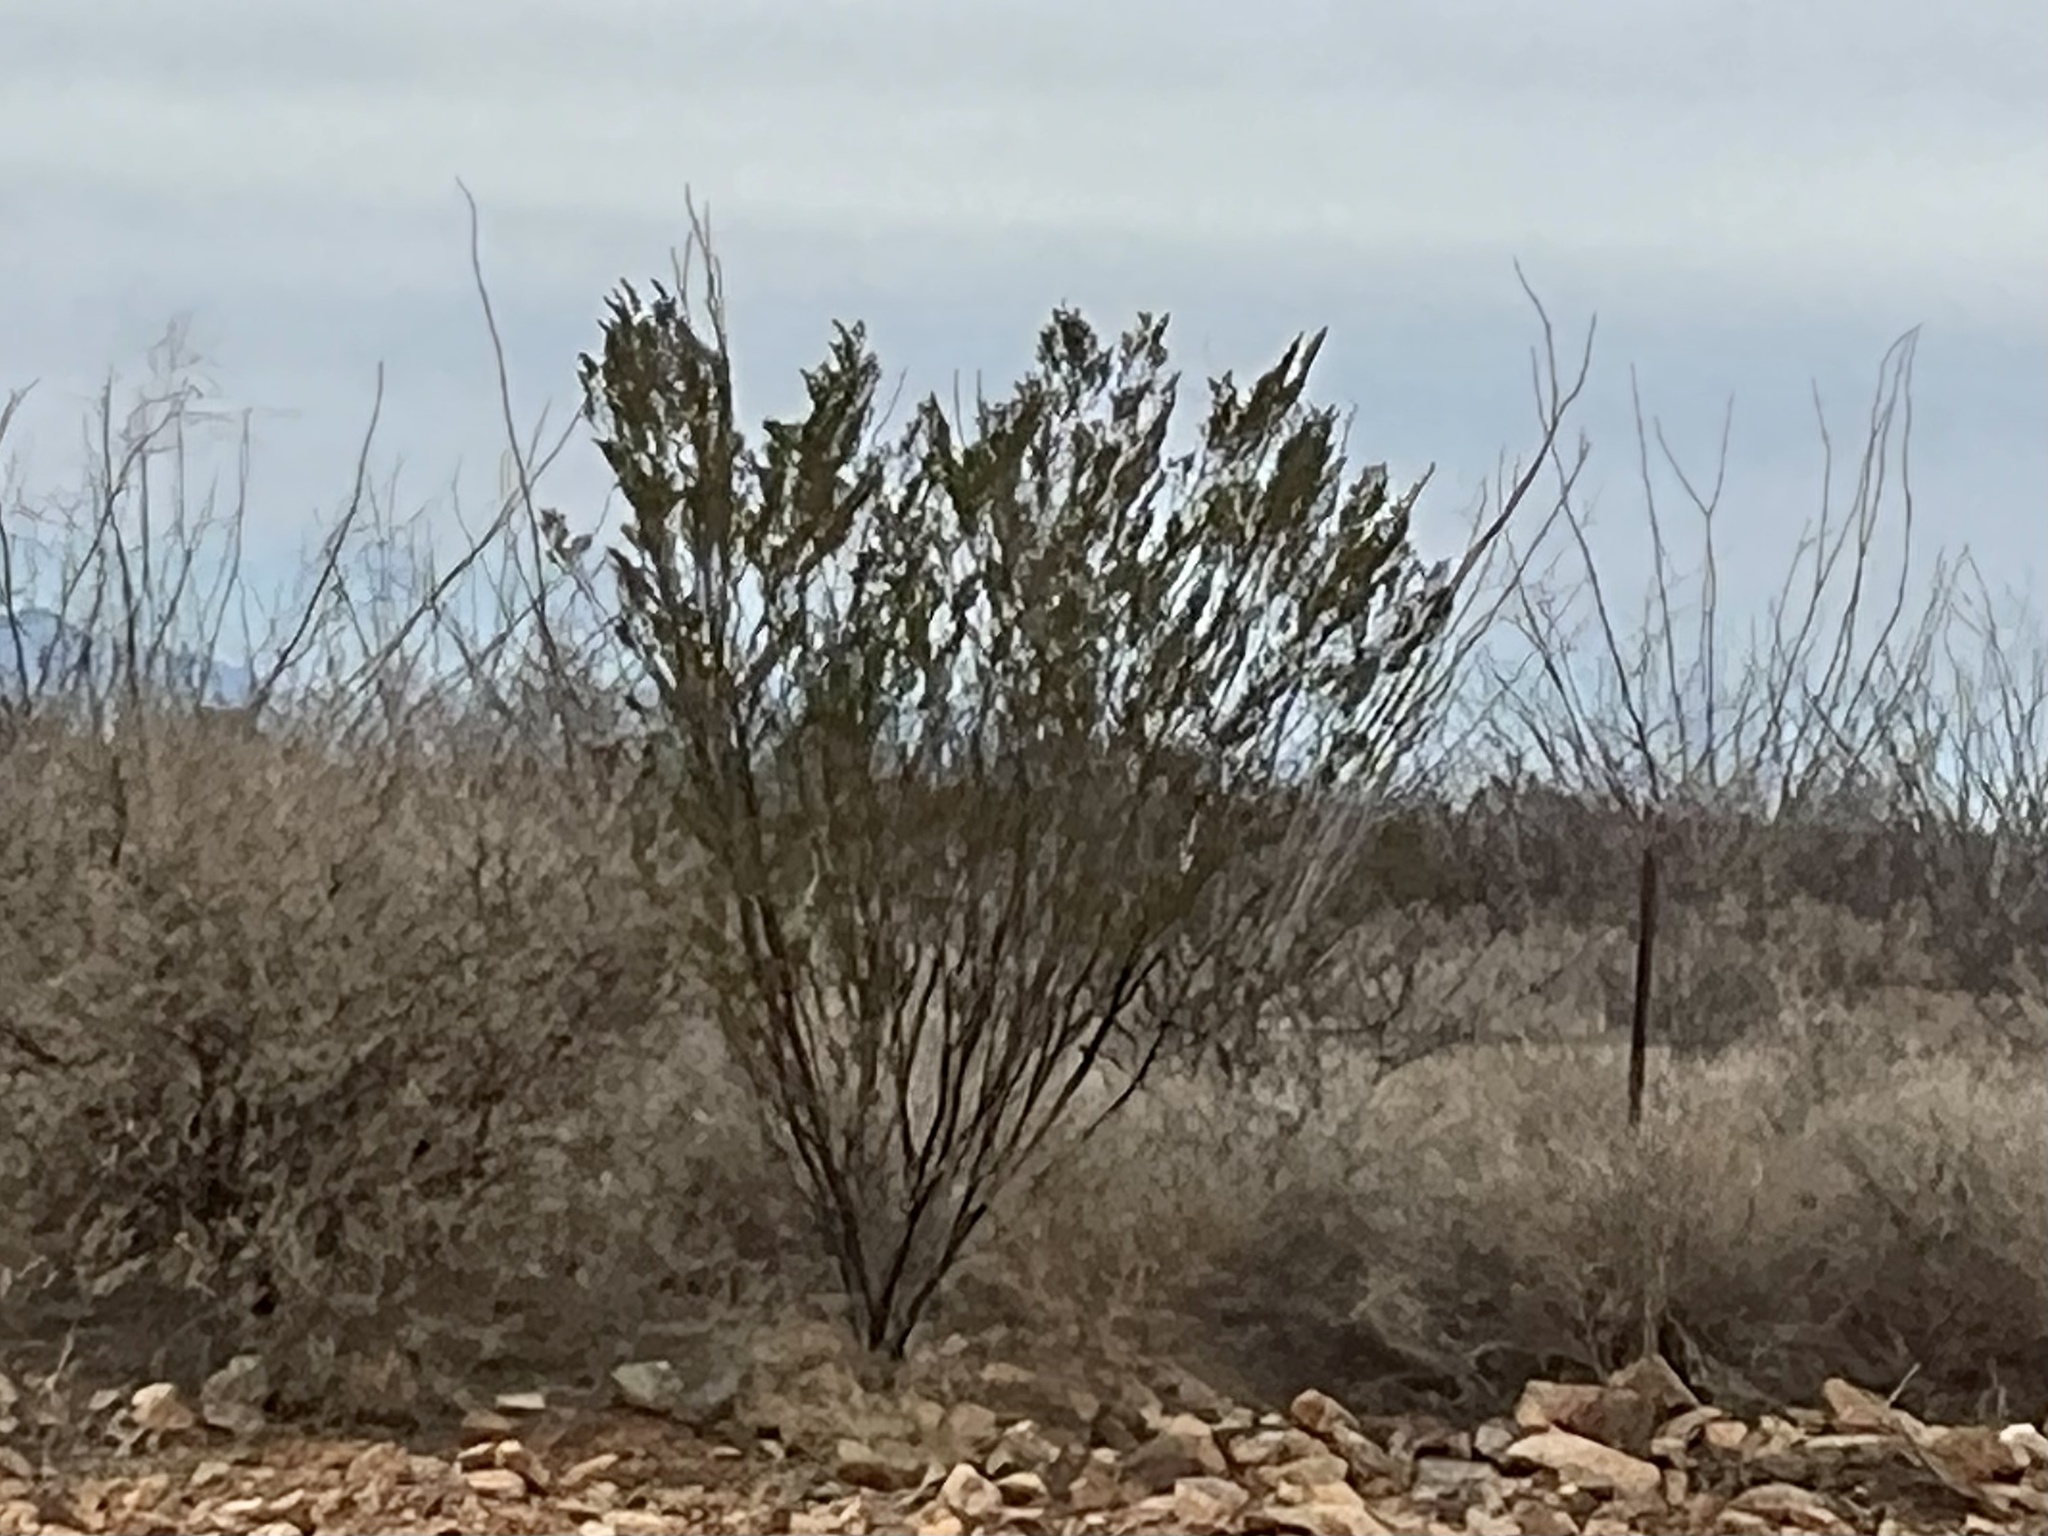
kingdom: Plantae
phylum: Tracheophyta
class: Magnoliopsida
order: Zygophyllales
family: Zygophyllaceae
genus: Larrea
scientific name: Larrea tridentata
